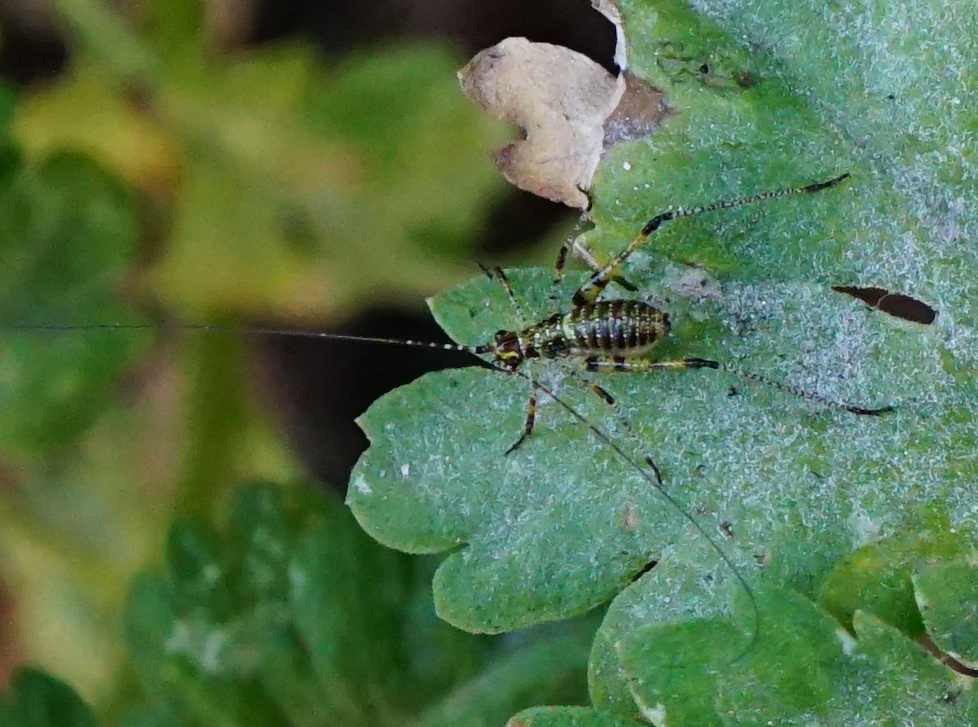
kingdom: Animalia
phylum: Arthropoda
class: Insecta
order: Orthoptera
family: Tettigoniidae
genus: Phaneroptera
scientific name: Phaneroptera nana
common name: Southern sickle bush-cricket
